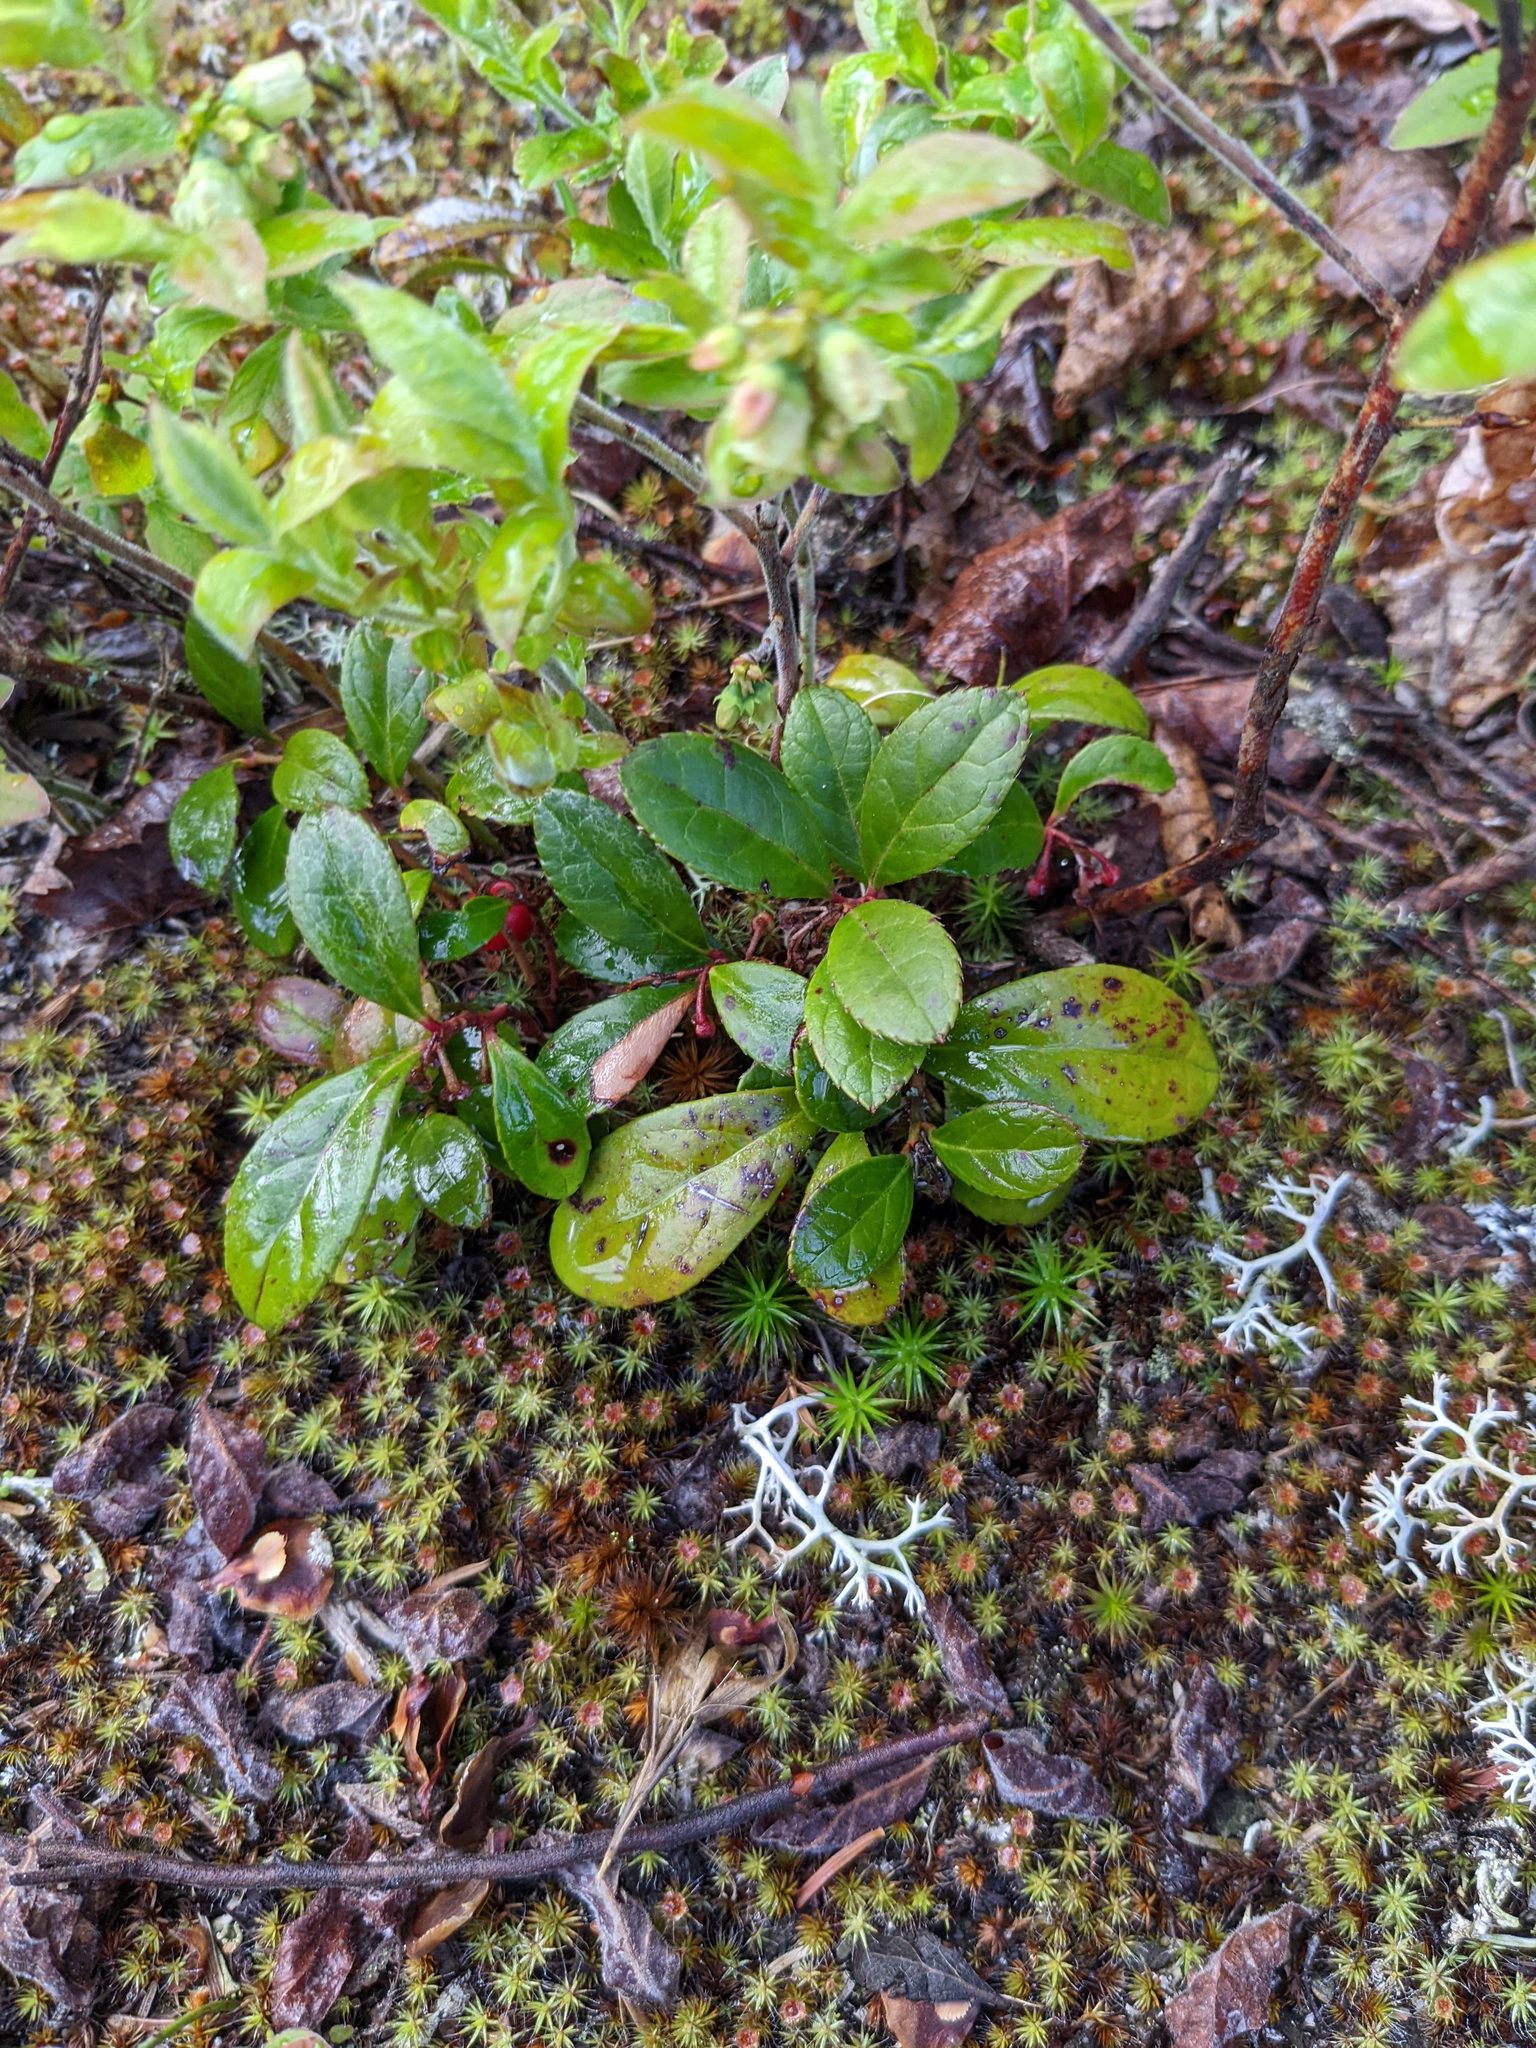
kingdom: Plantae
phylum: Tracheophyta
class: Magnoliopsida
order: Ericales
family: Ericaceae
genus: Gaultheria
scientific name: Gaultheria procumbens
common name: Checkerberry
